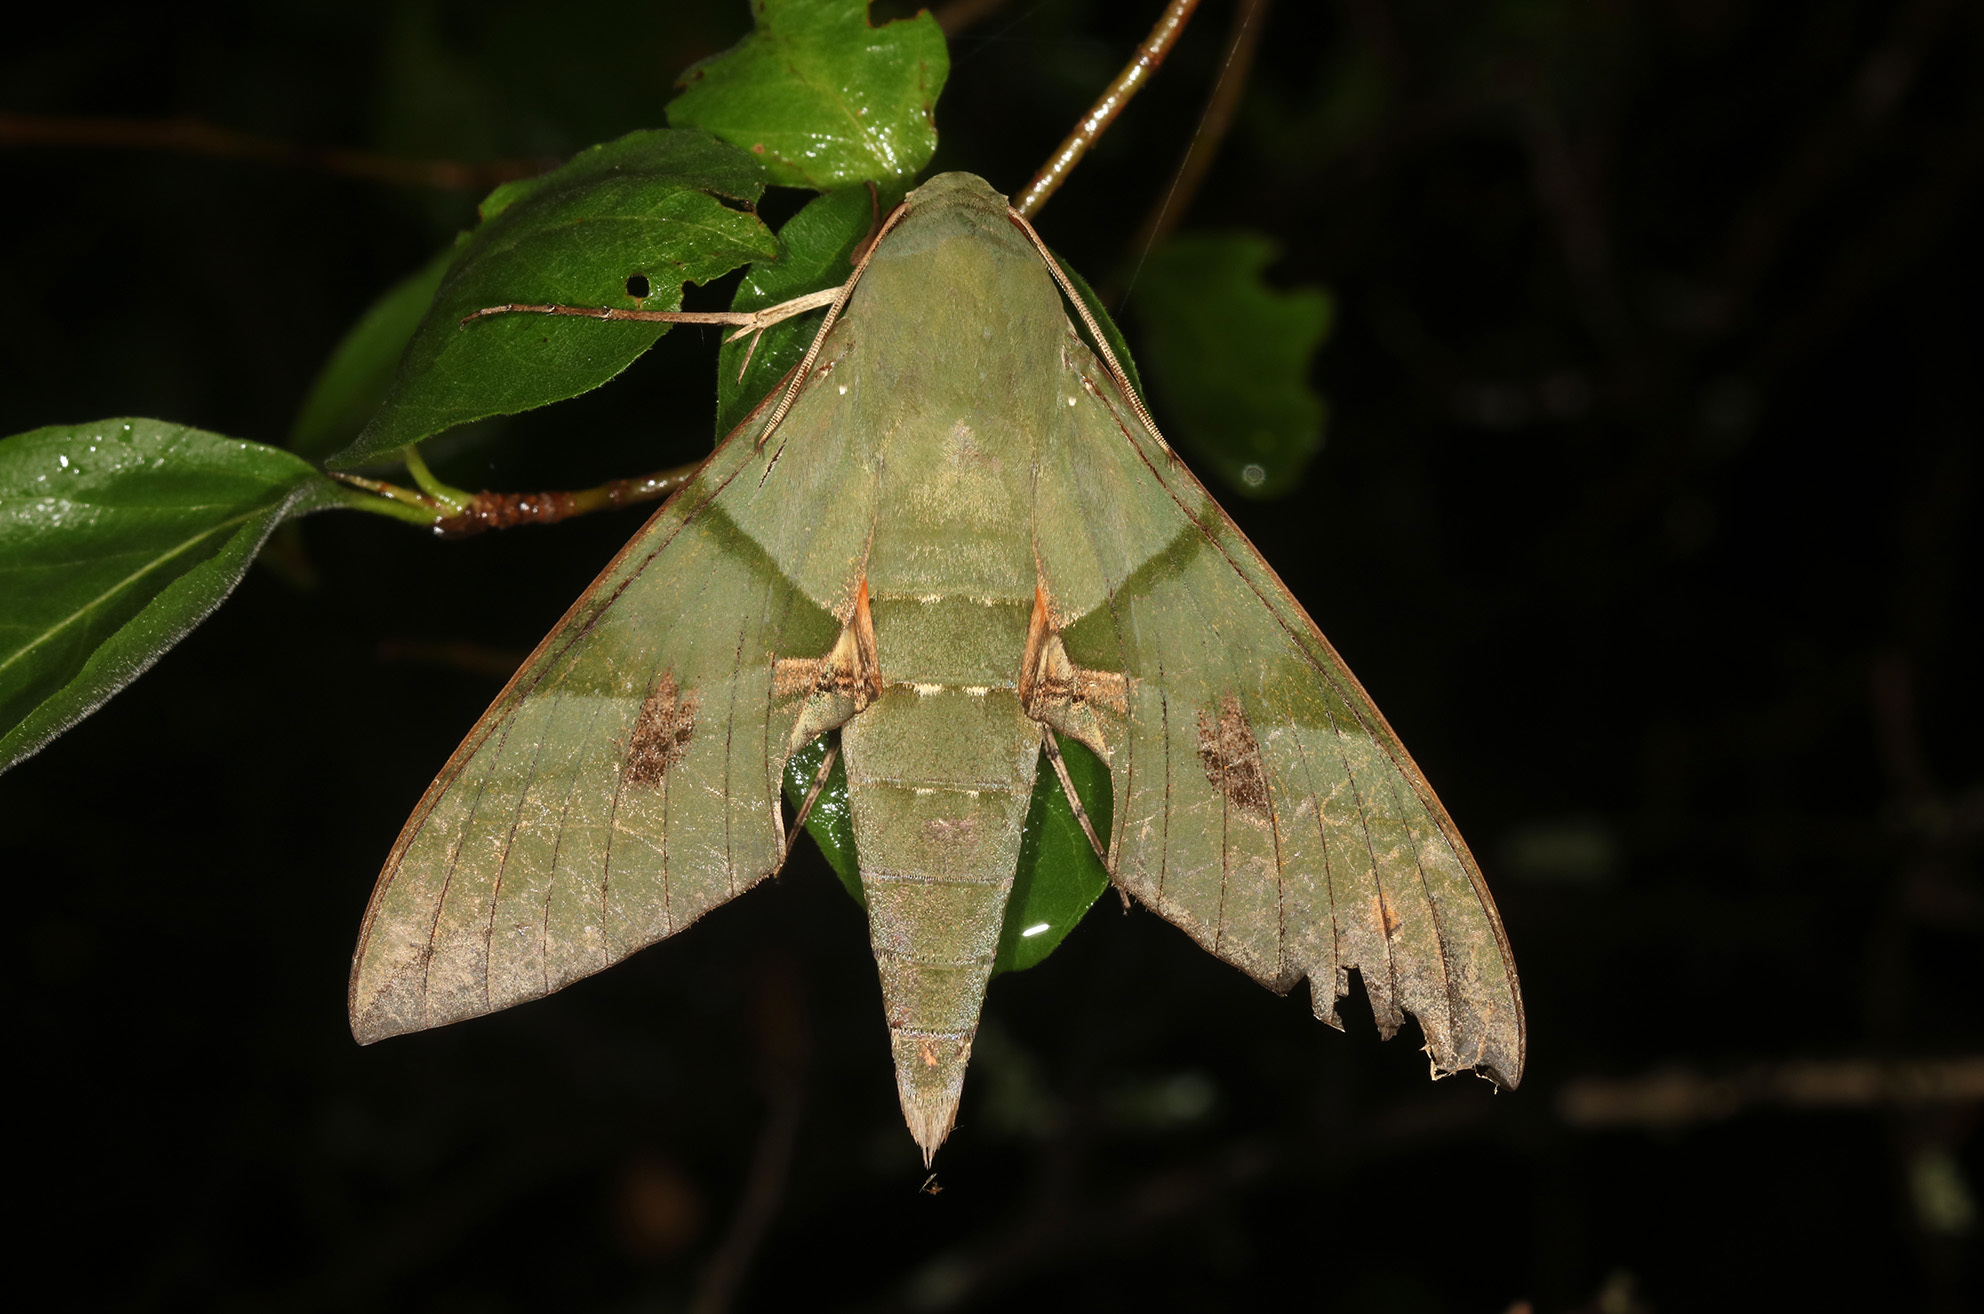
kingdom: Animalia
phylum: Arthropoda
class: Insecta
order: Lepidoptera
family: Sphingidae
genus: Eumorpha
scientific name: Eumorpha labruscae
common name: Gaudy sphinx
